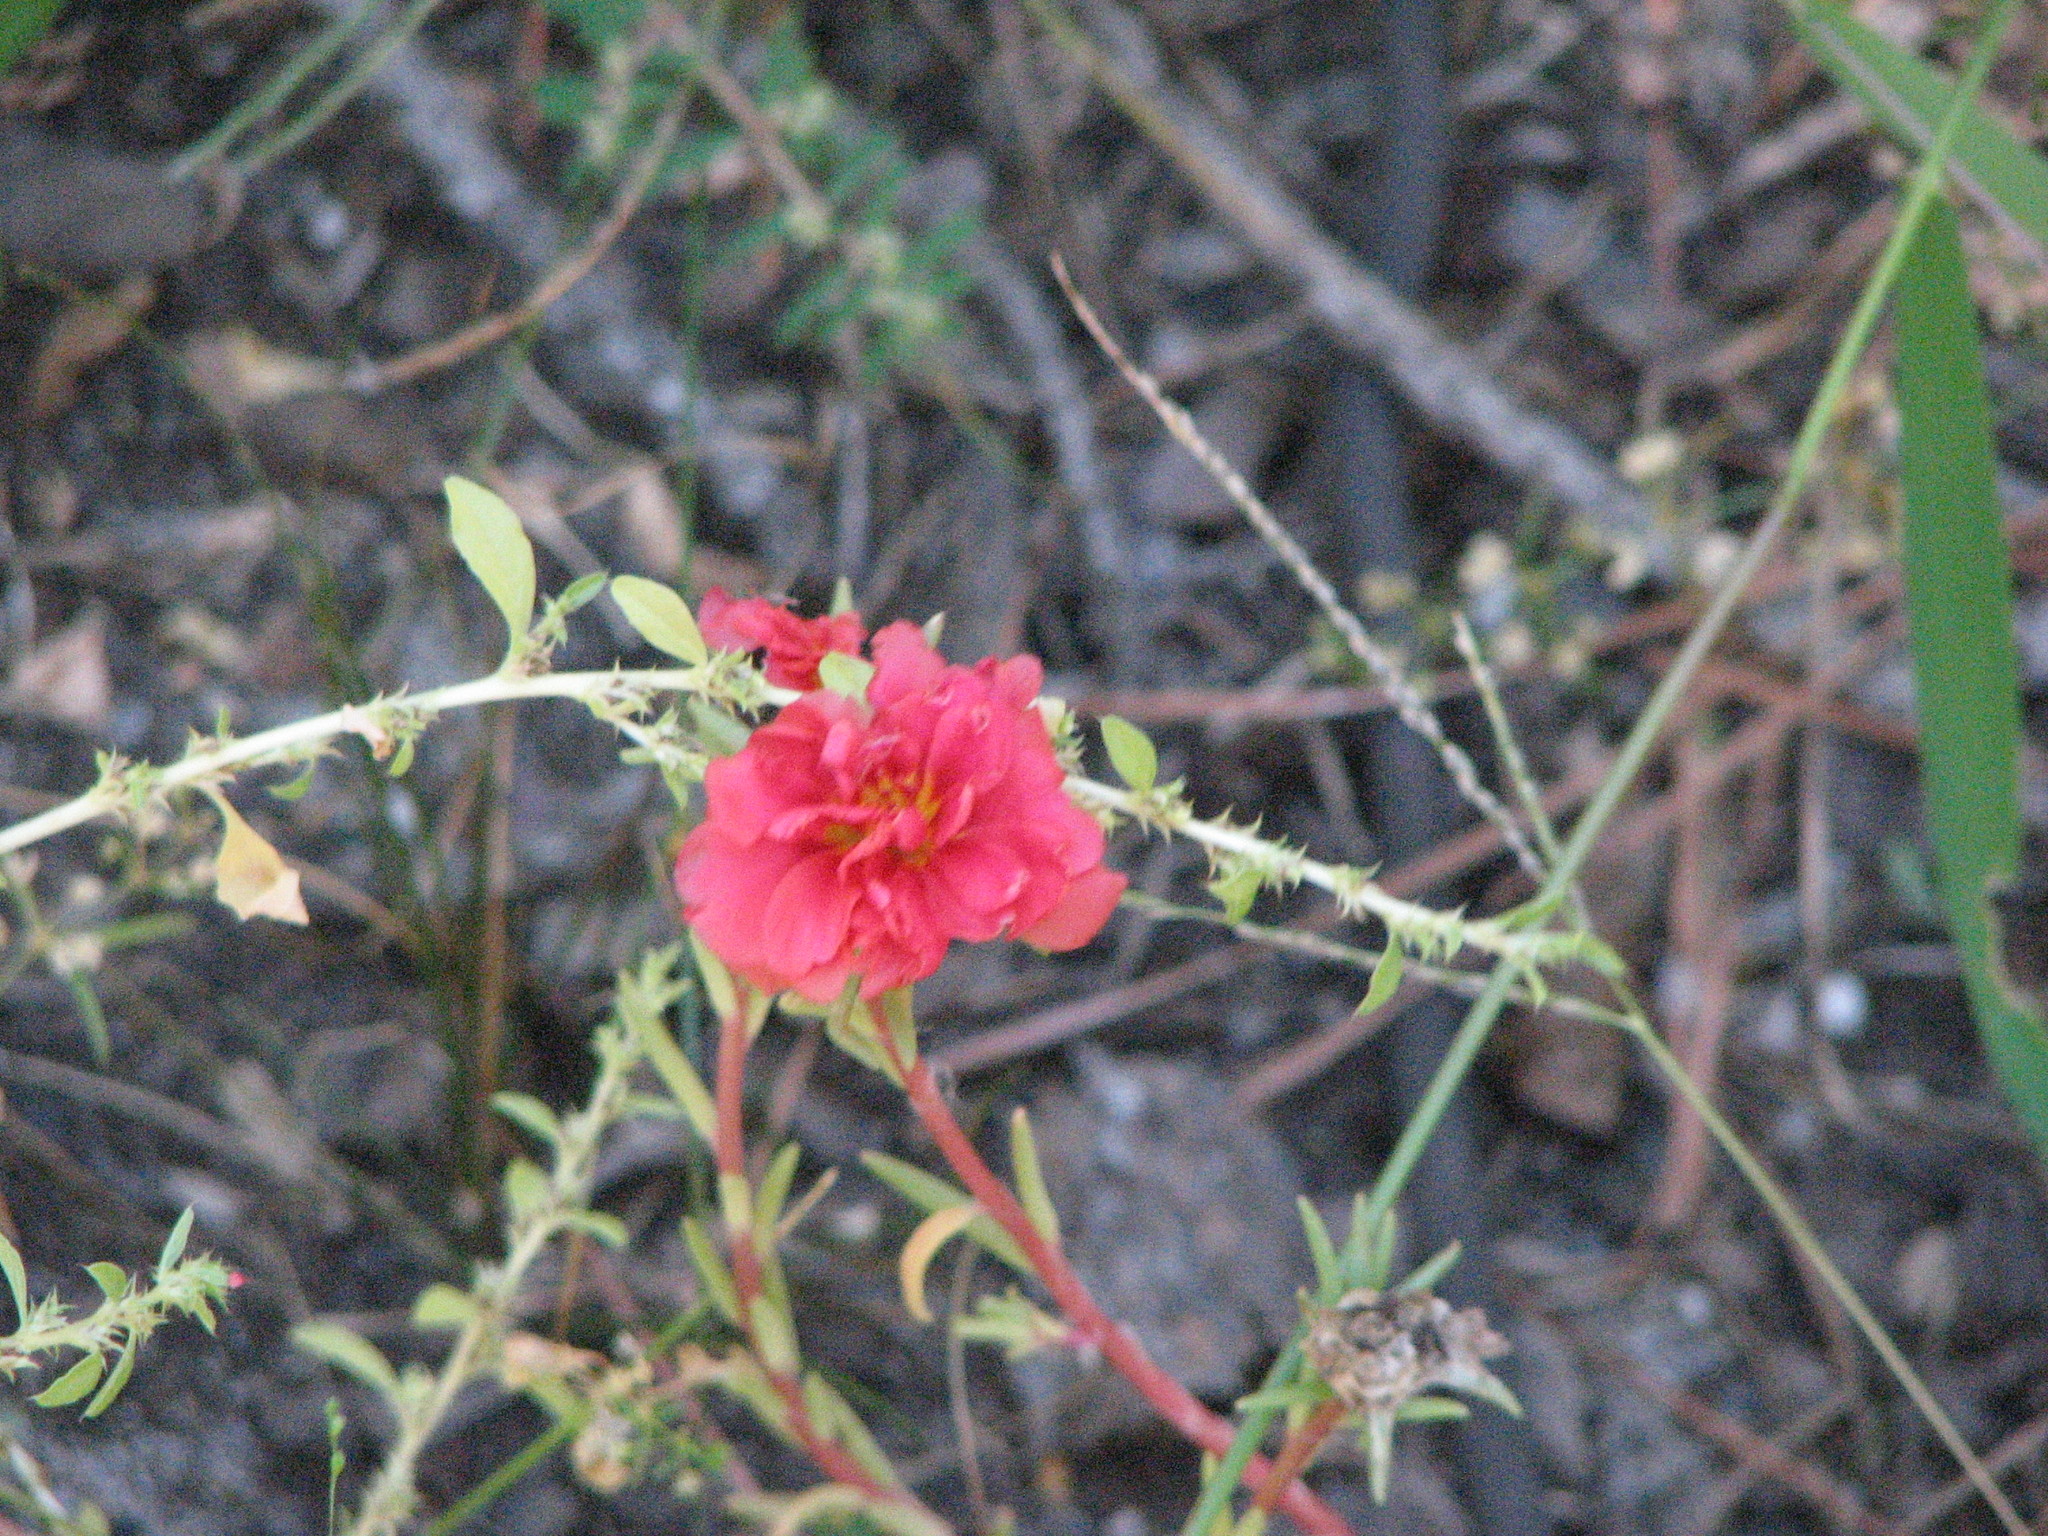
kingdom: Plantae
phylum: Tracheophyta
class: Magnoliopsida
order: Caryophyllales
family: Portulacaceae
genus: Portulaca
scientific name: Portulaca grandiflora
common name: Moss-rose
